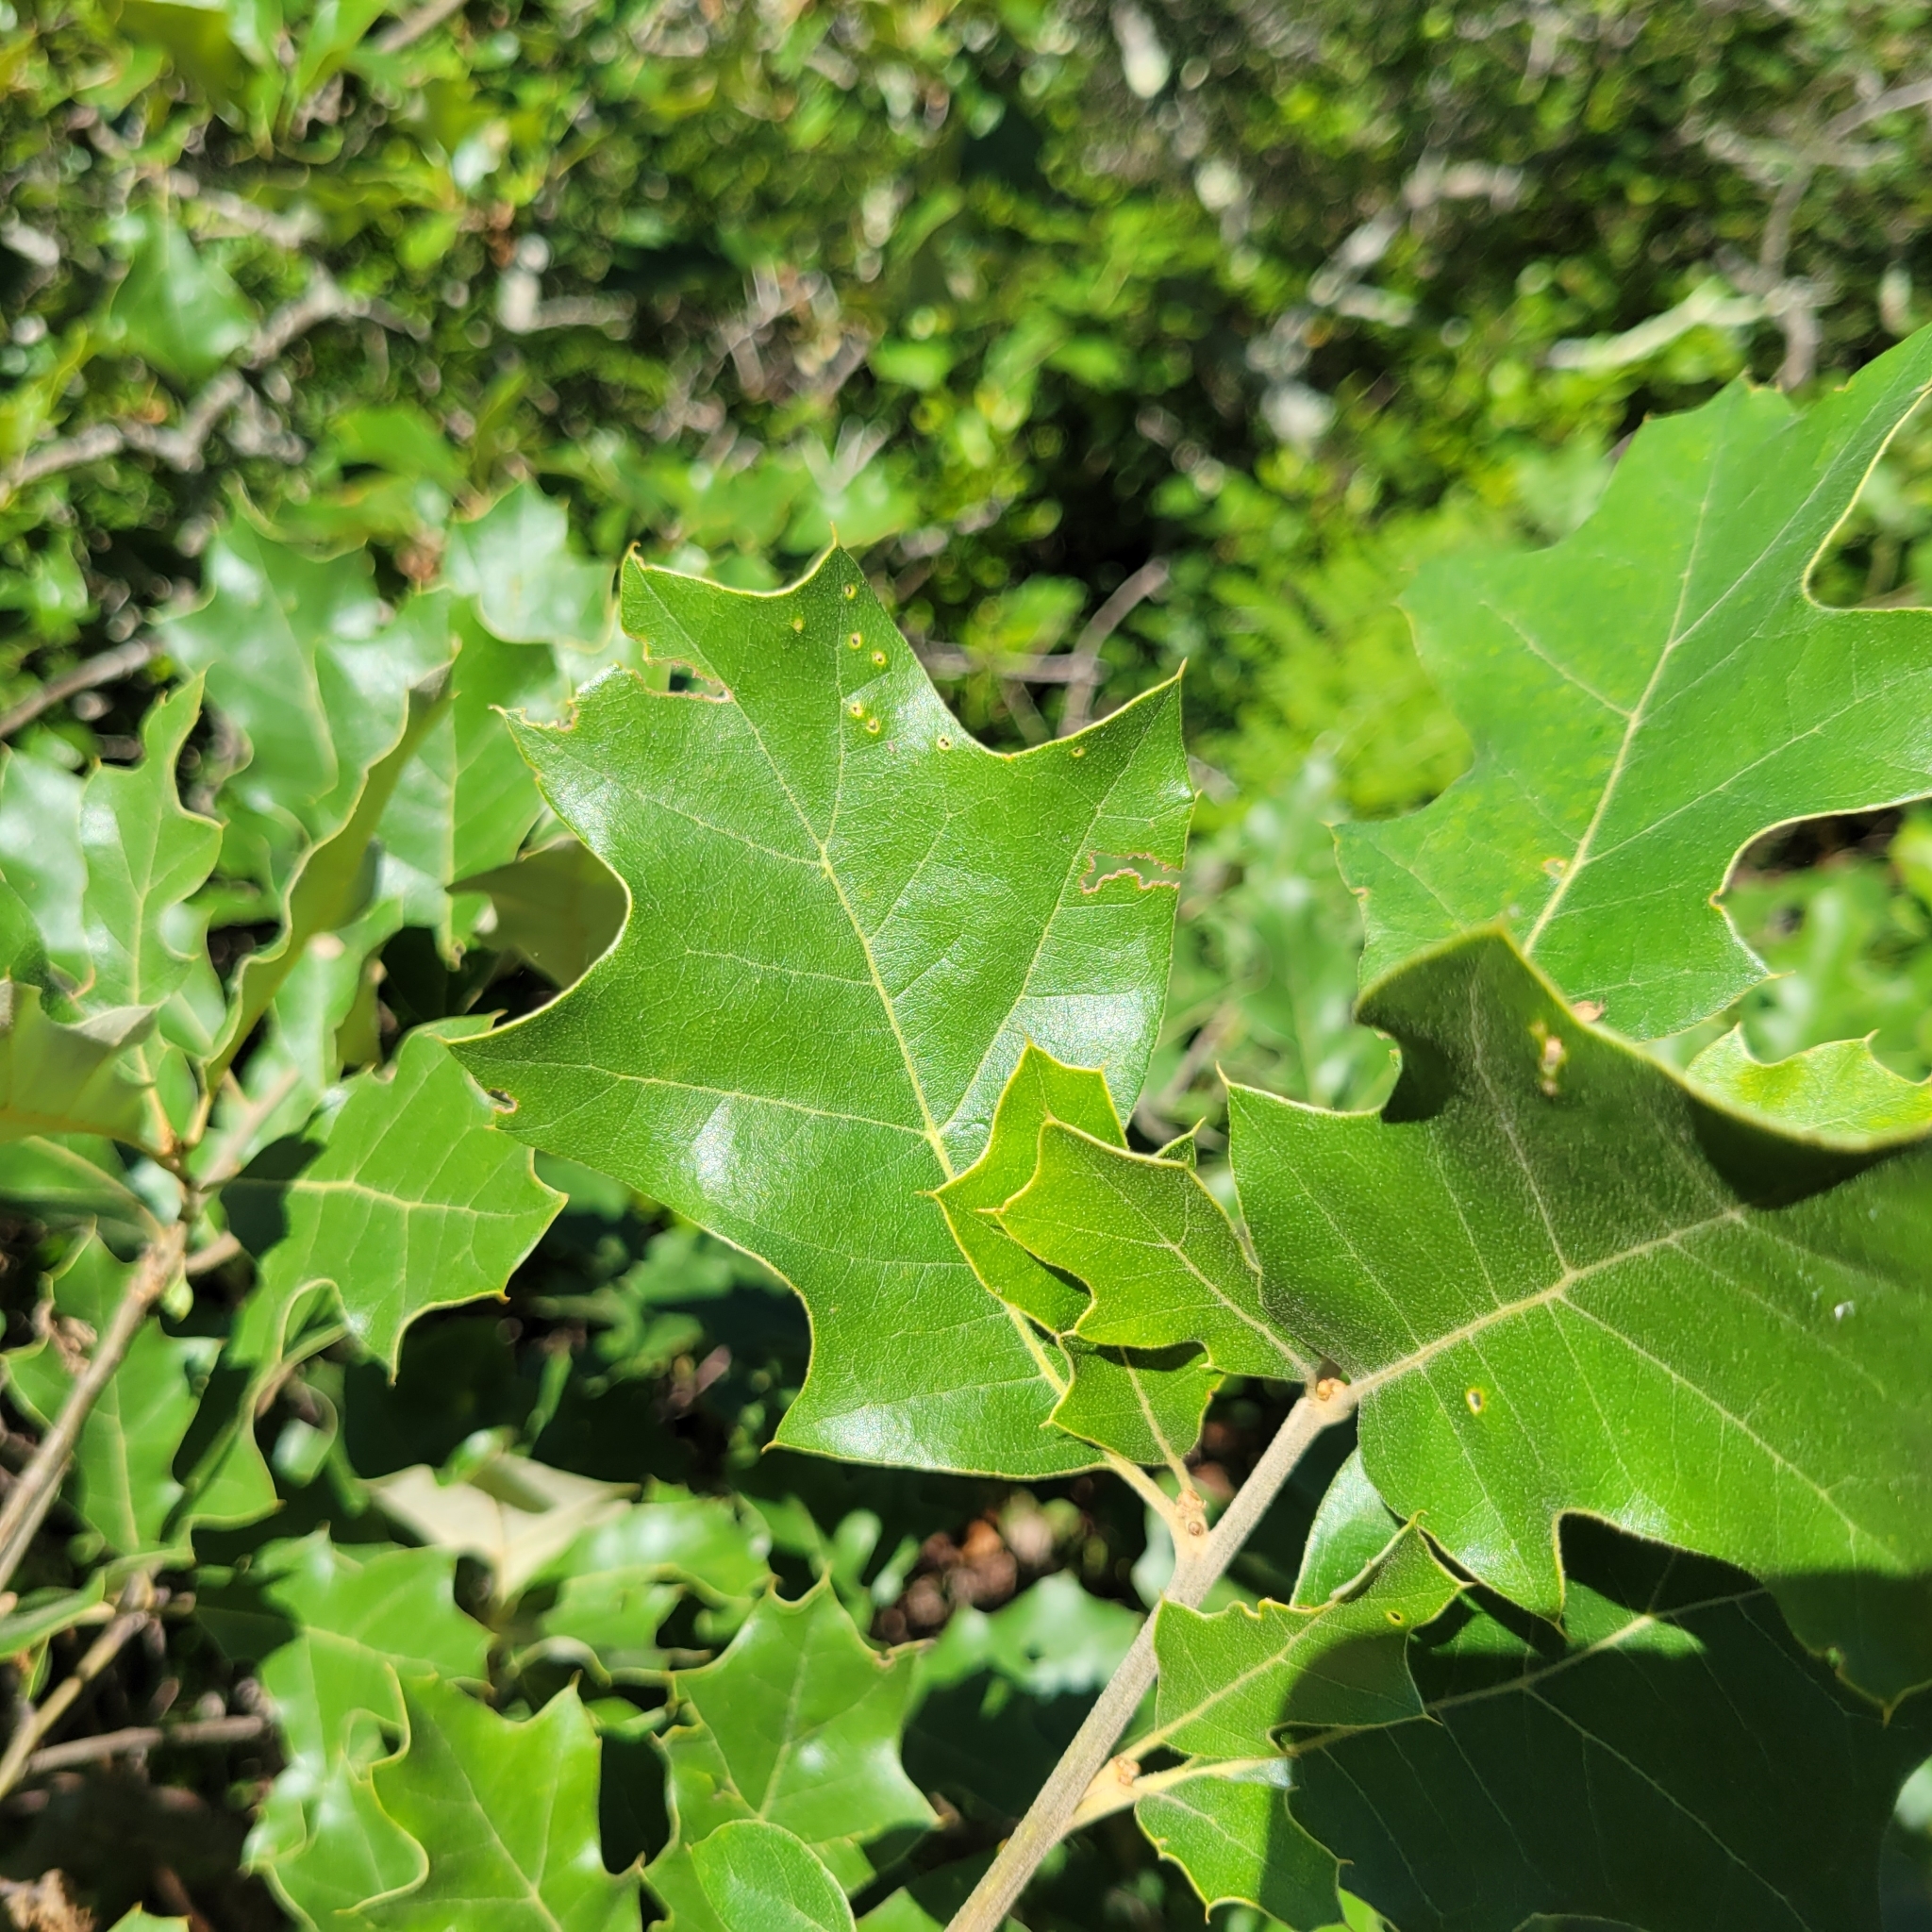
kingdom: Plantae
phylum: Tracheophyta
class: Magnoliopsida
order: Fagales
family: Fagaceae
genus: Quercus
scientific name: Quercus ilicifolia
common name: Bear oak
